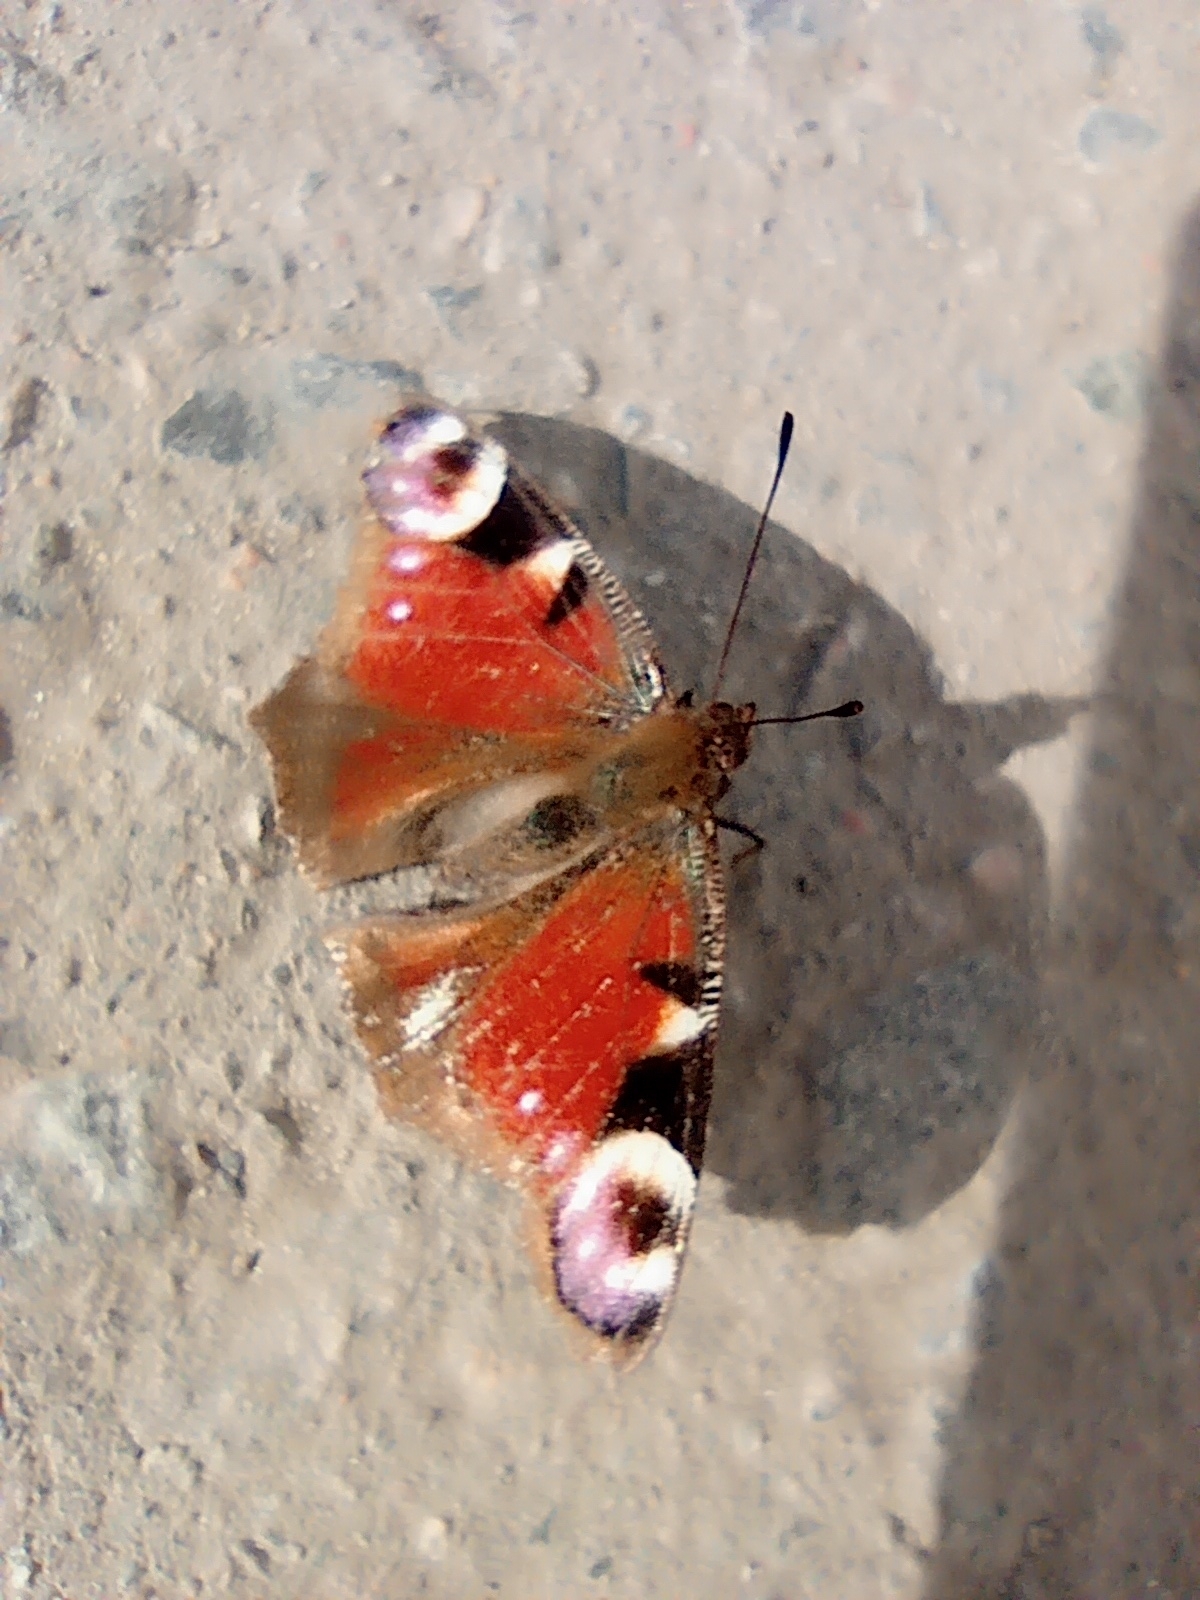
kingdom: Animalia
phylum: Arthropoda
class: Insecta
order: Lepidoptera
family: Nymphalidae
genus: Aglais
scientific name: Aglais io
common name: Peacock
